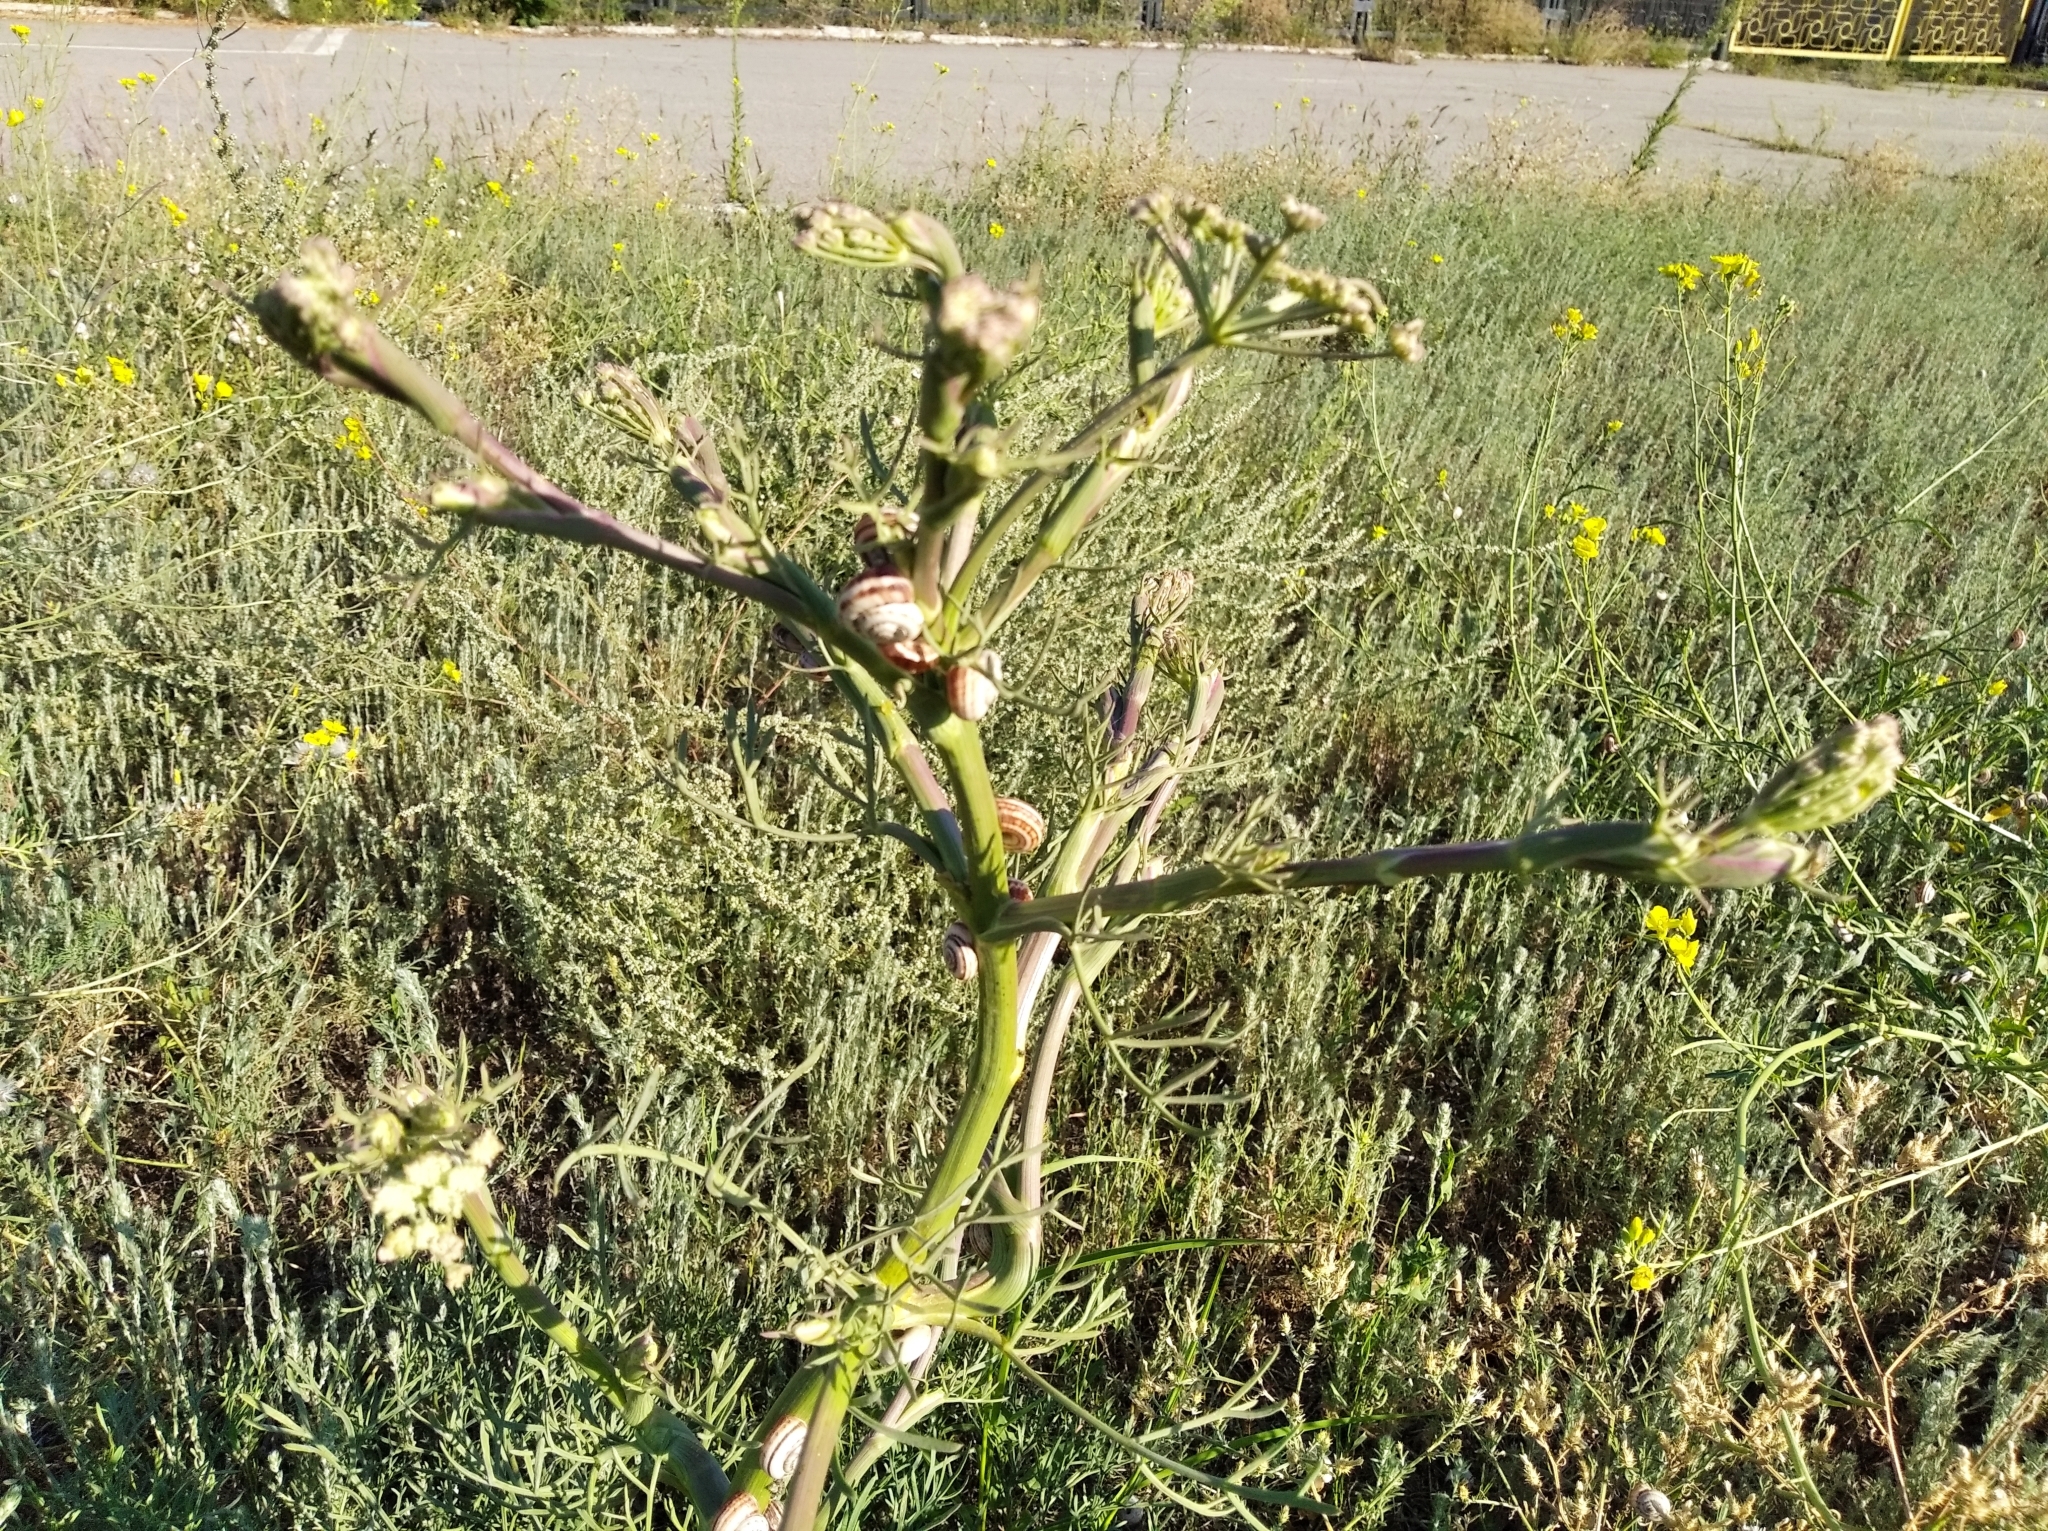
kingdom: Plantae
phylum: Tracheophyta
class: Magnoliopsida
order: Apiales
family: Apiaceae
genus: Seseli
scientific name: Seseli arenarium
